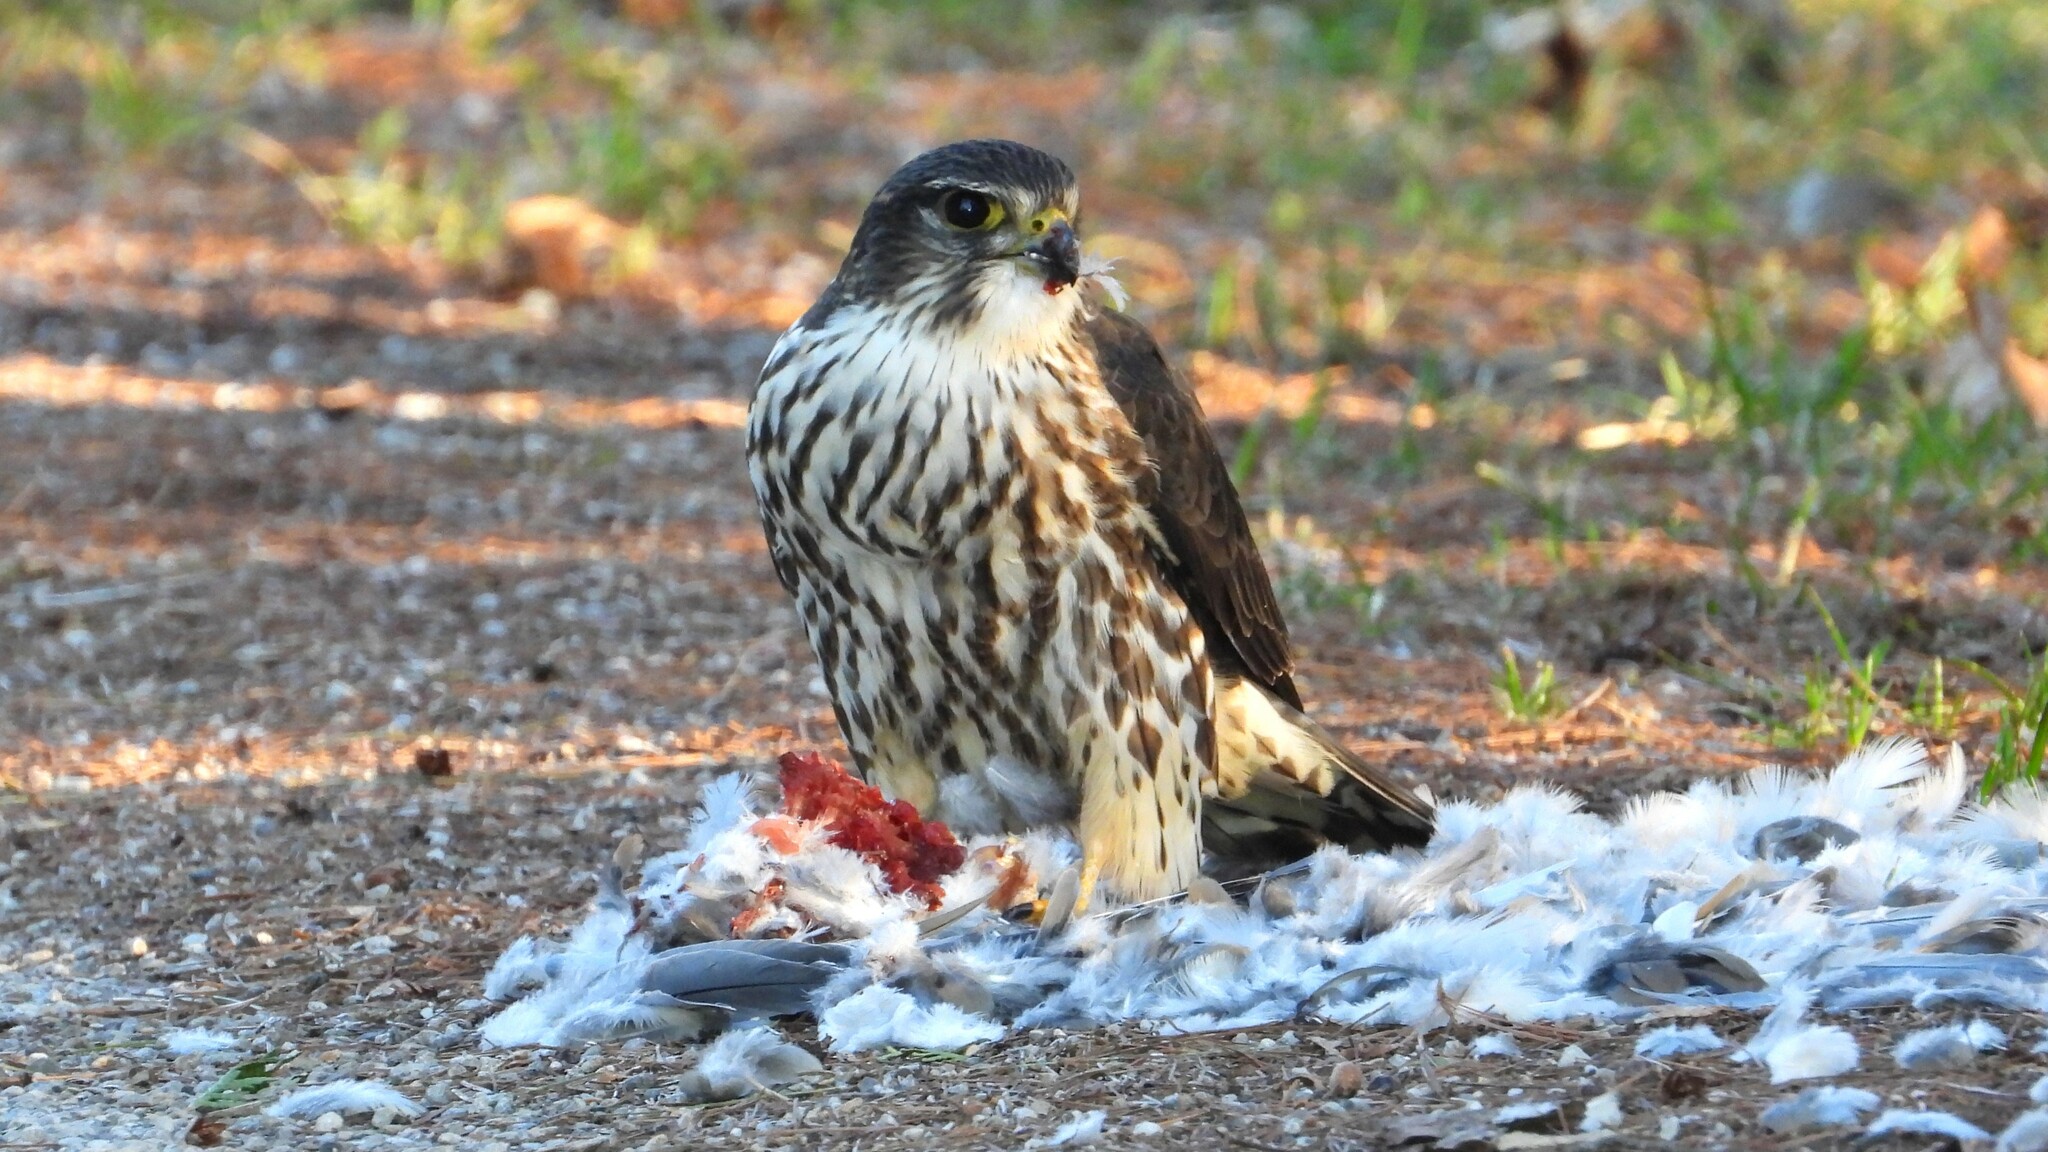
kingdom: Animalia
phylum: Chordata
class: Aves
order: Falconiformes
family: Falconidae
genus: Falco
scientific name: Falco columbarius
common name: Merlin
